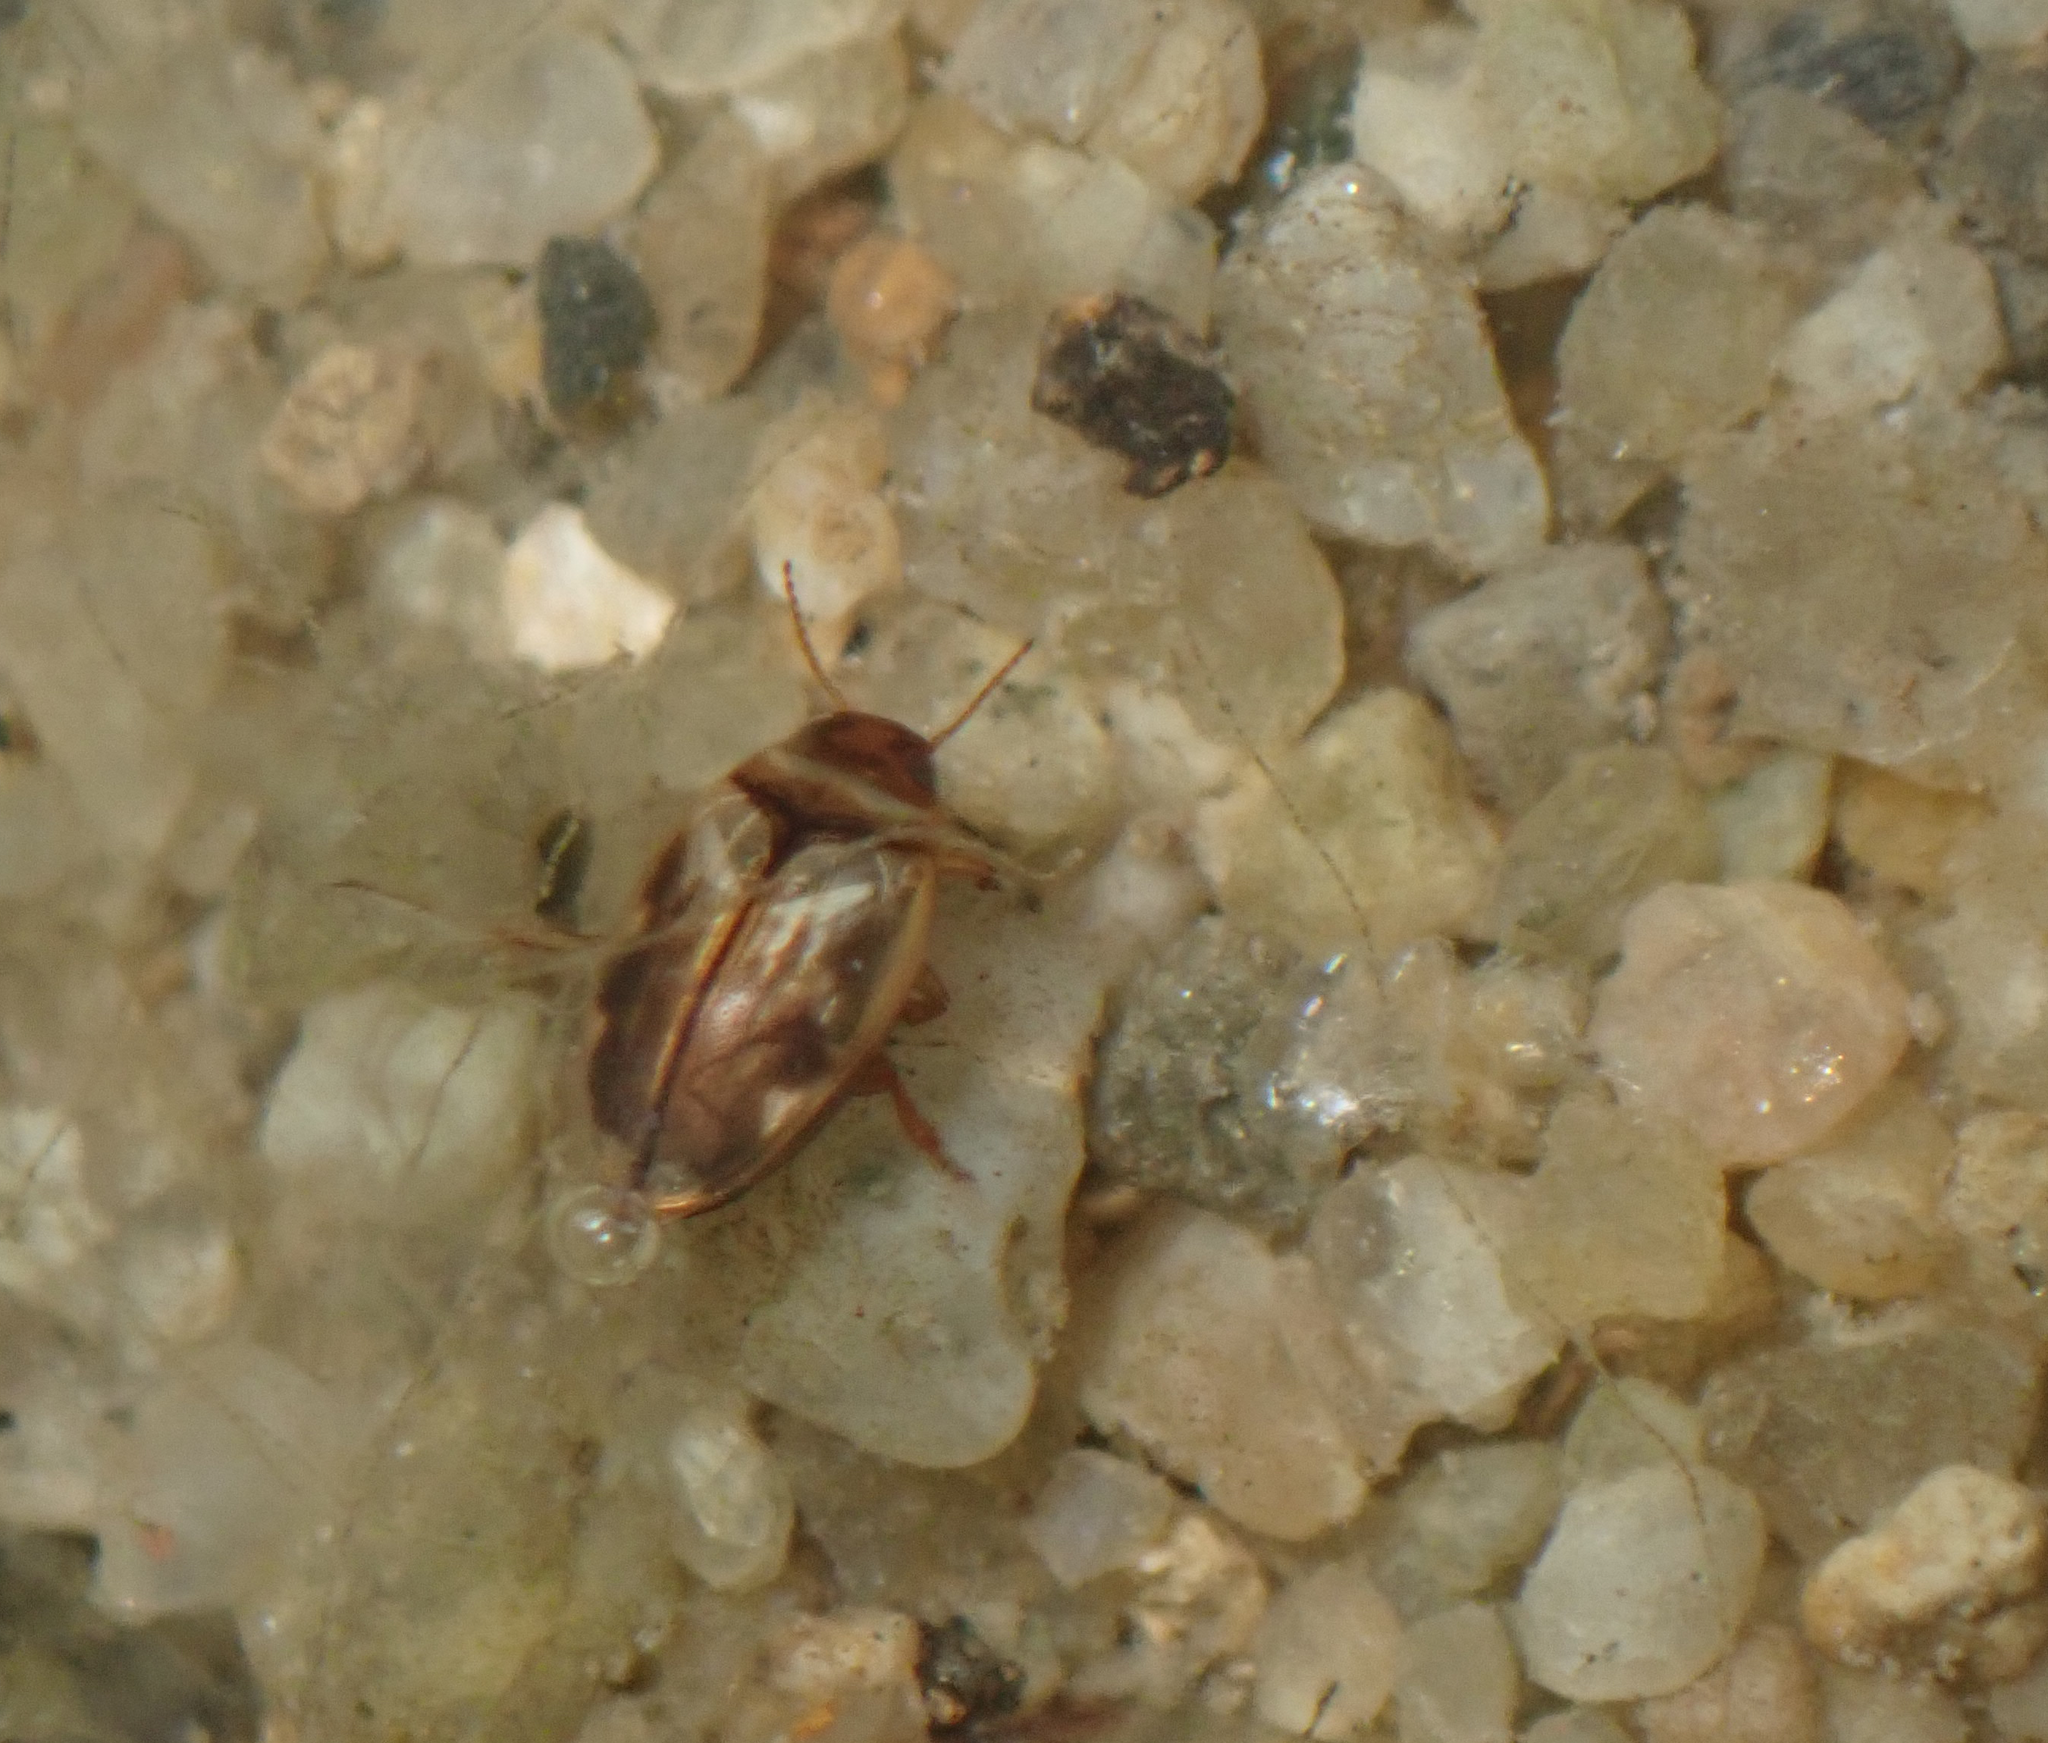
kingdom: Animalia
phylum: Arthropoda
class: Insecta
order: Coleoptera
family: Dytiscidae
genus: Hygrotus
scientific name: Hygrotus
